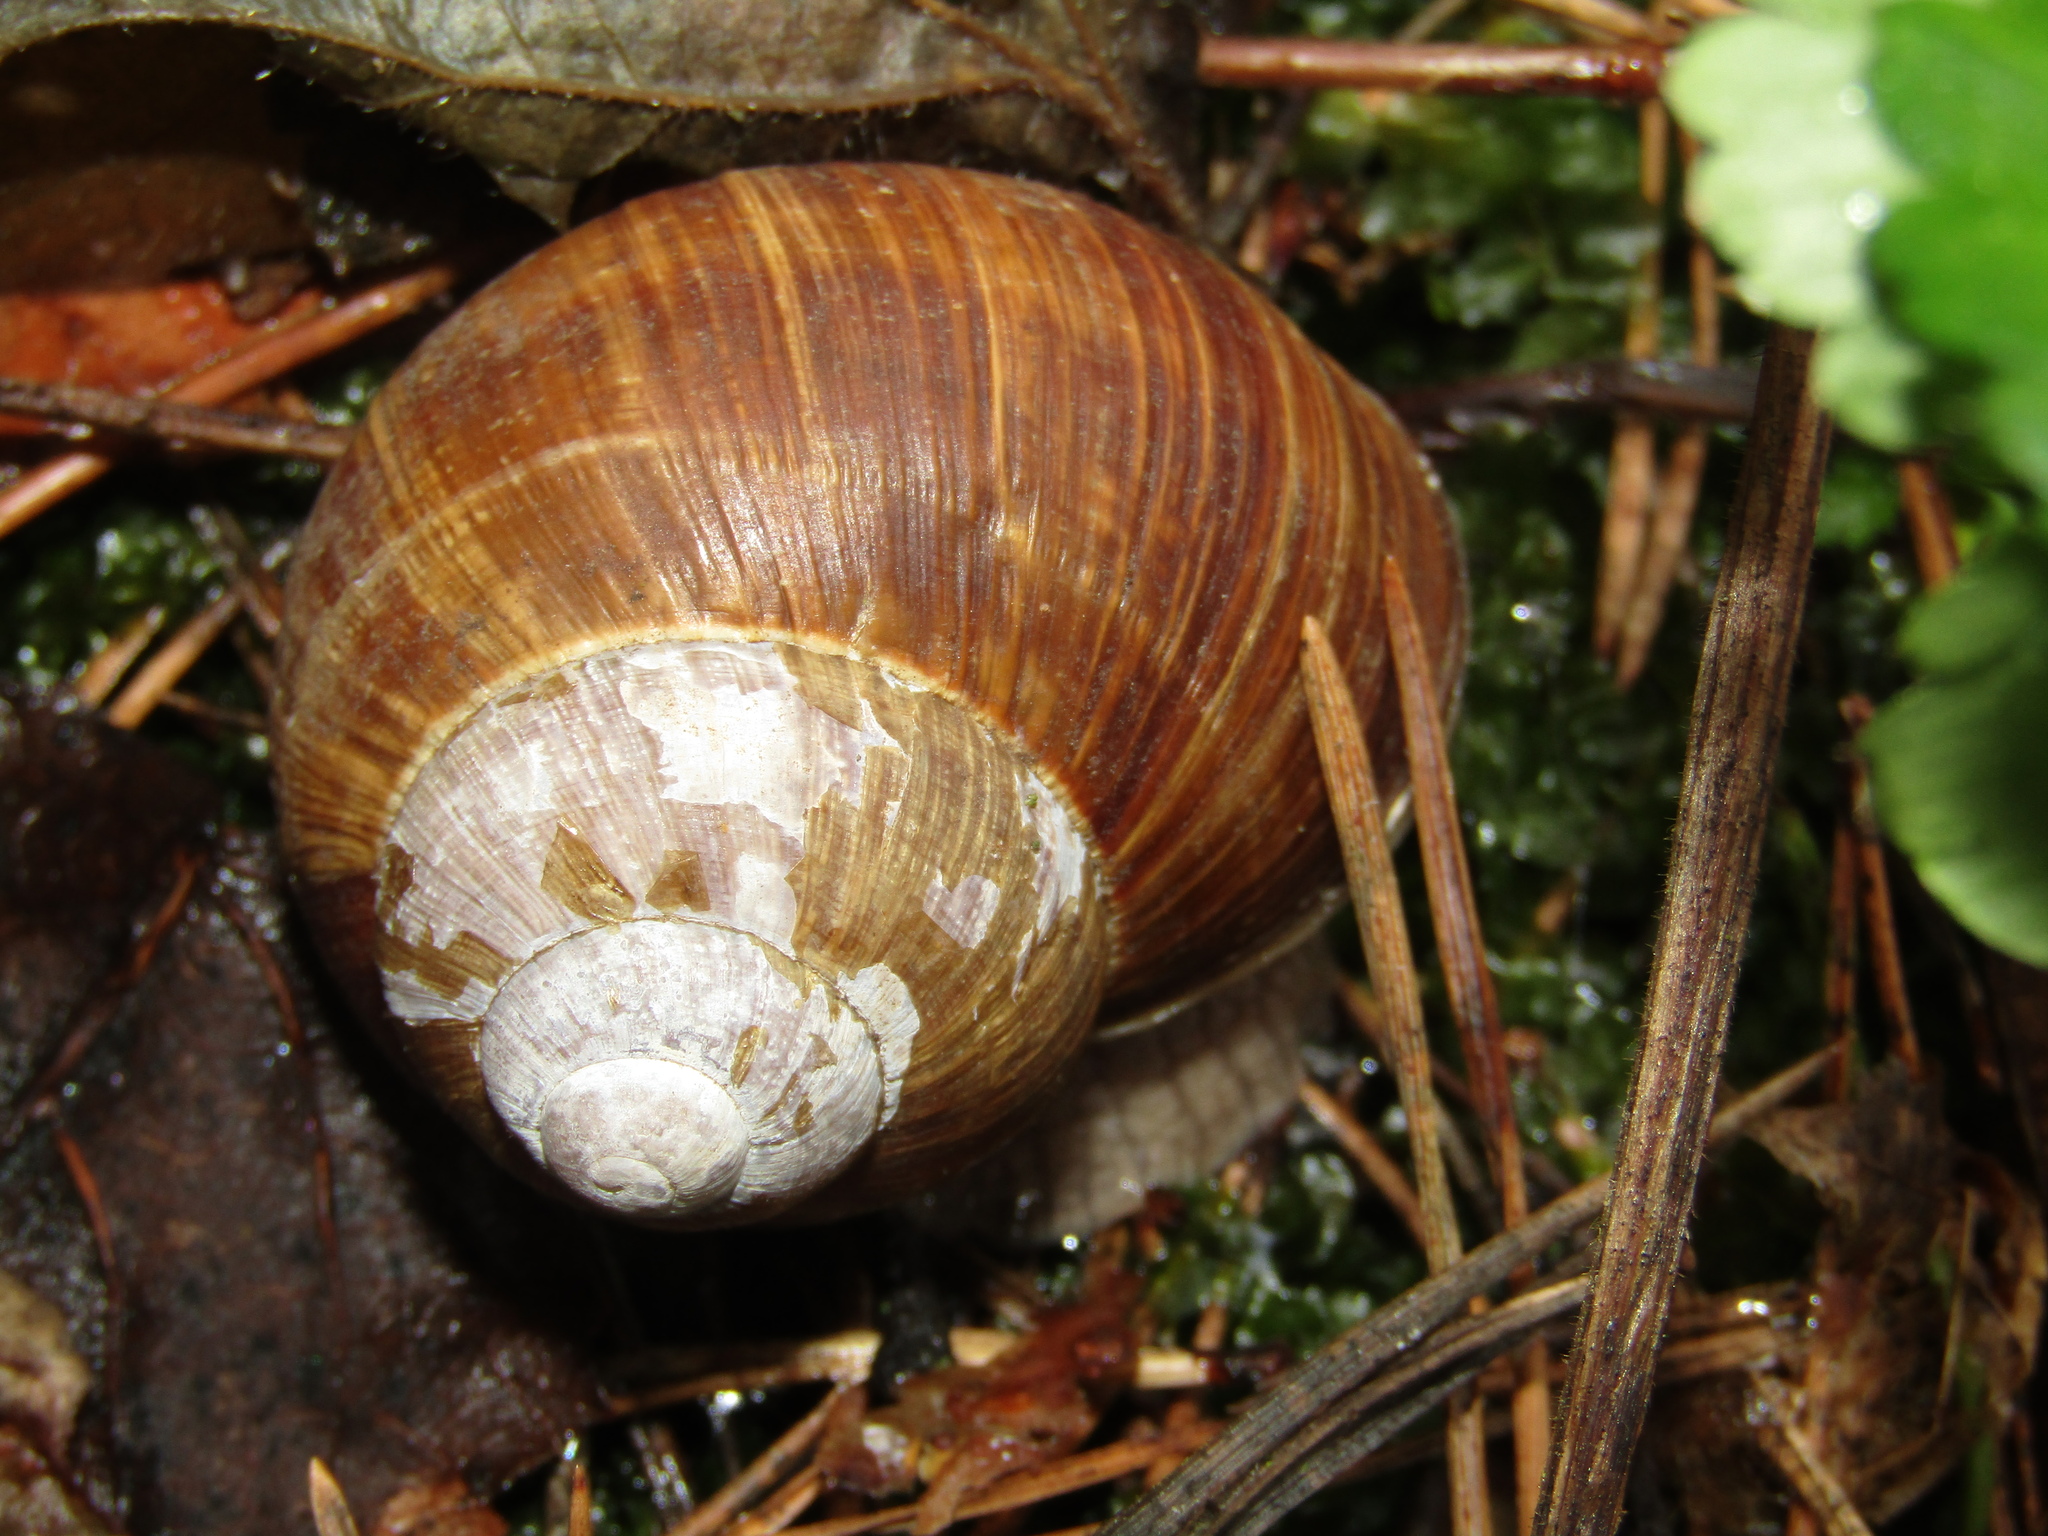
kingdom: Animalia
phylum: Mollusca
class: Gastropoda
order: Stylommatophora
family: Helicidae
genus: Helix
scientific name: Helix pomatia
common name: Roman snail
